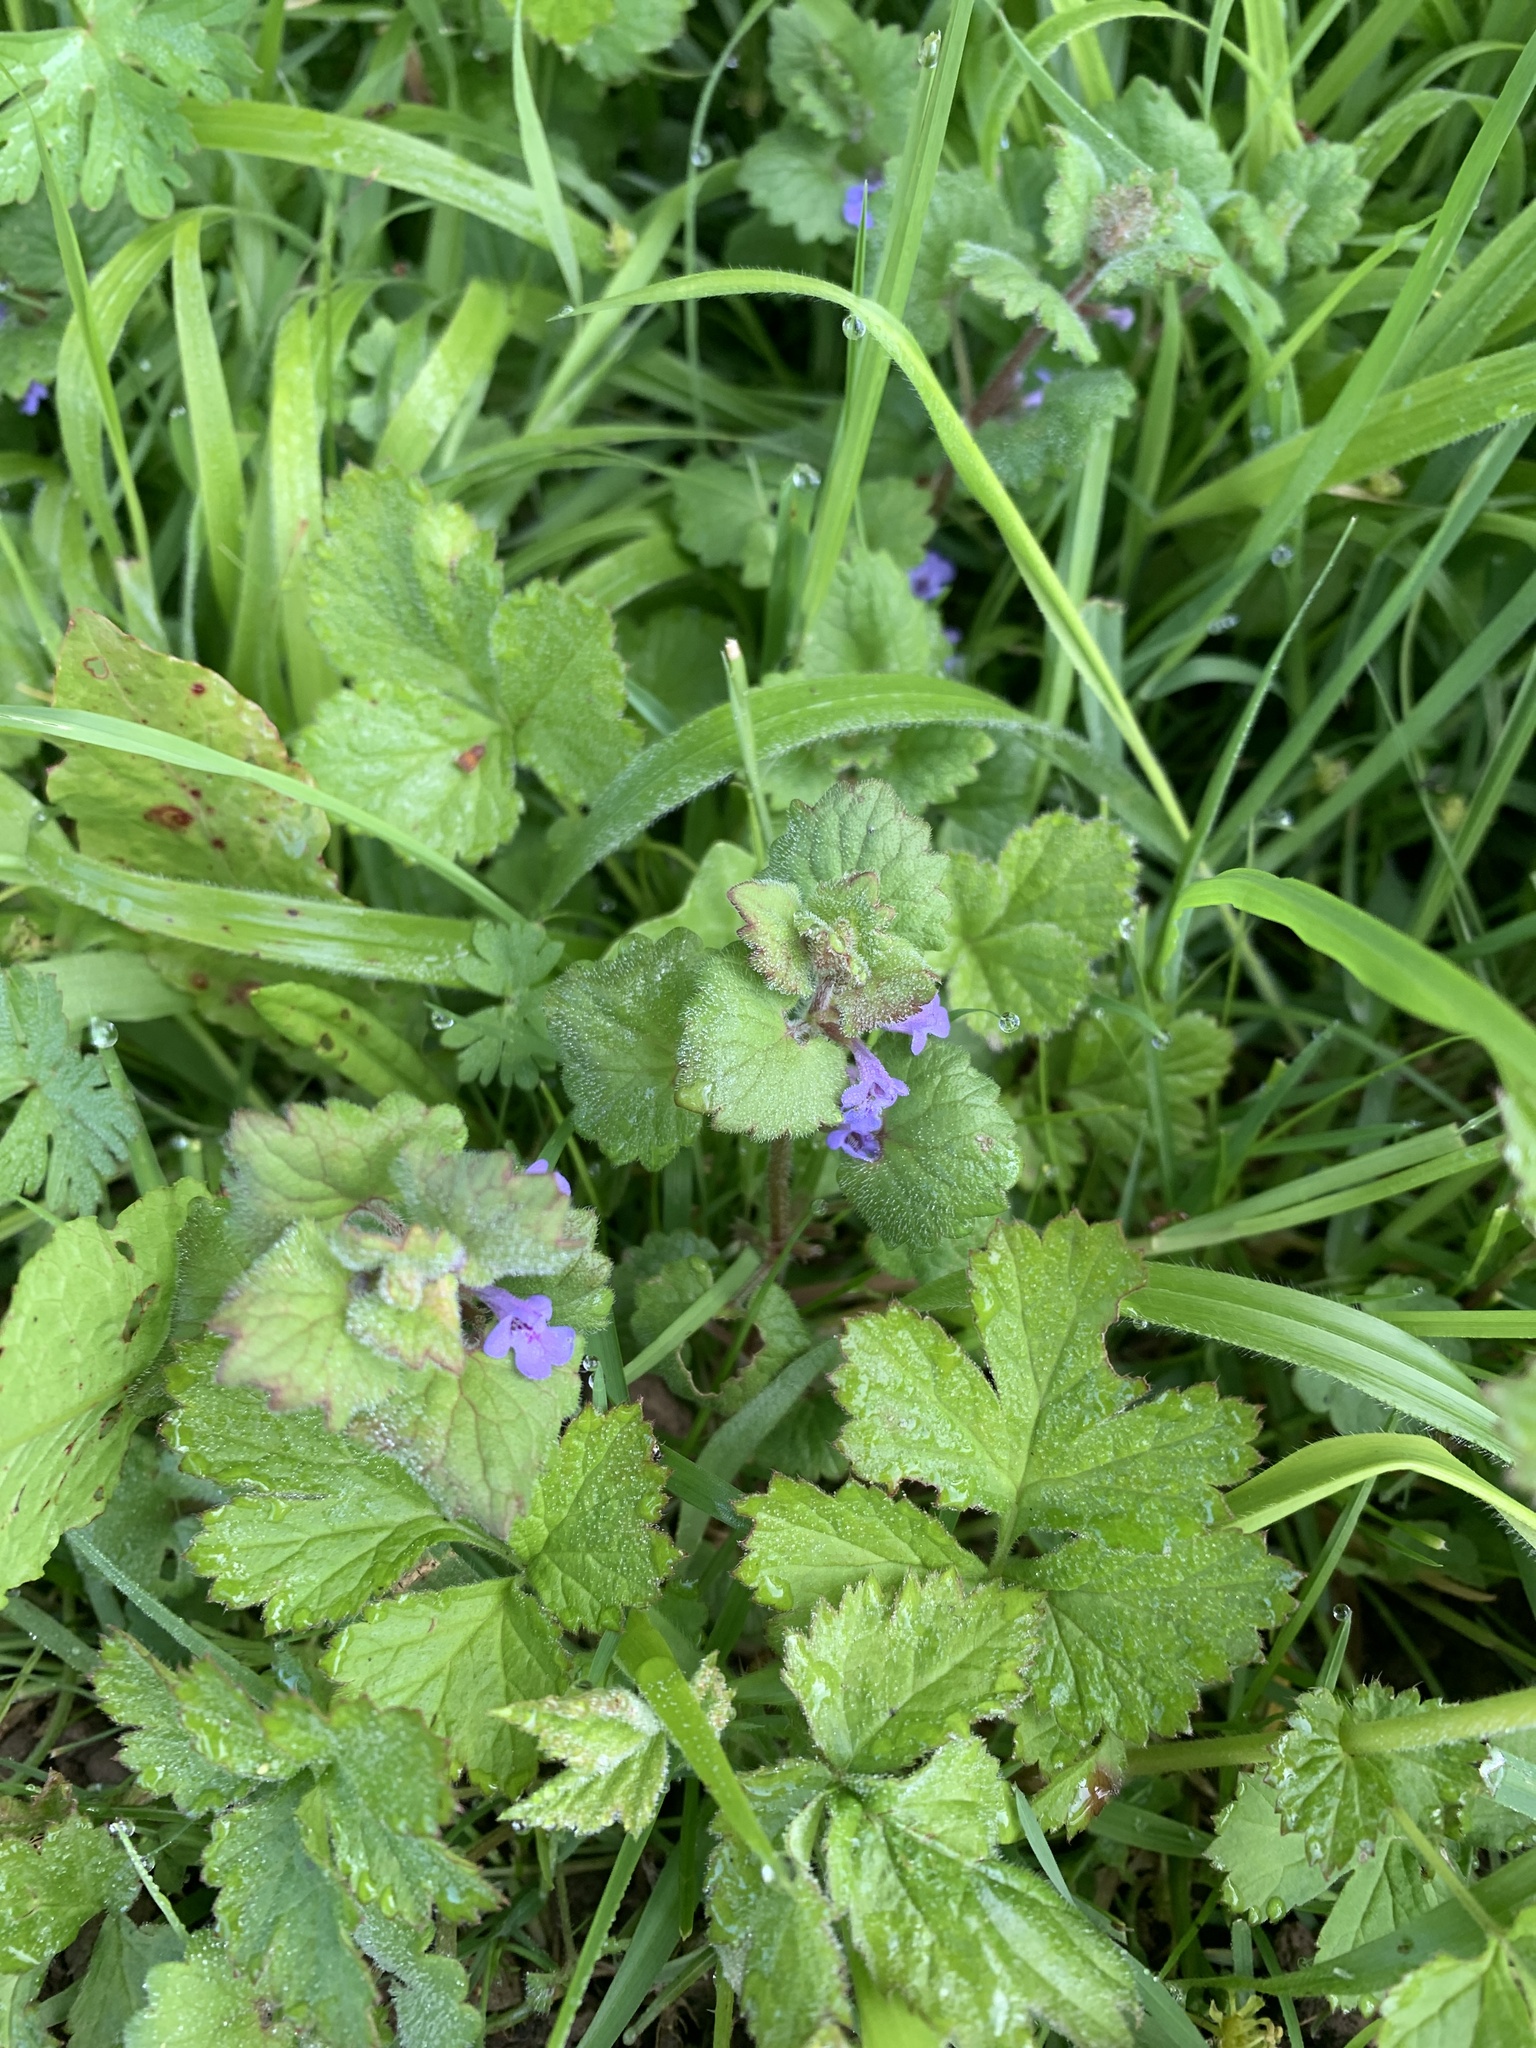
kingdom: Plantae
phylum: Tracheophyta
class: Magnoliopsida
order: Lamiales
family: Lamiaceae
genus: Glechoma
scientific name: Glechoma hederacea
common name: Ground ivy
